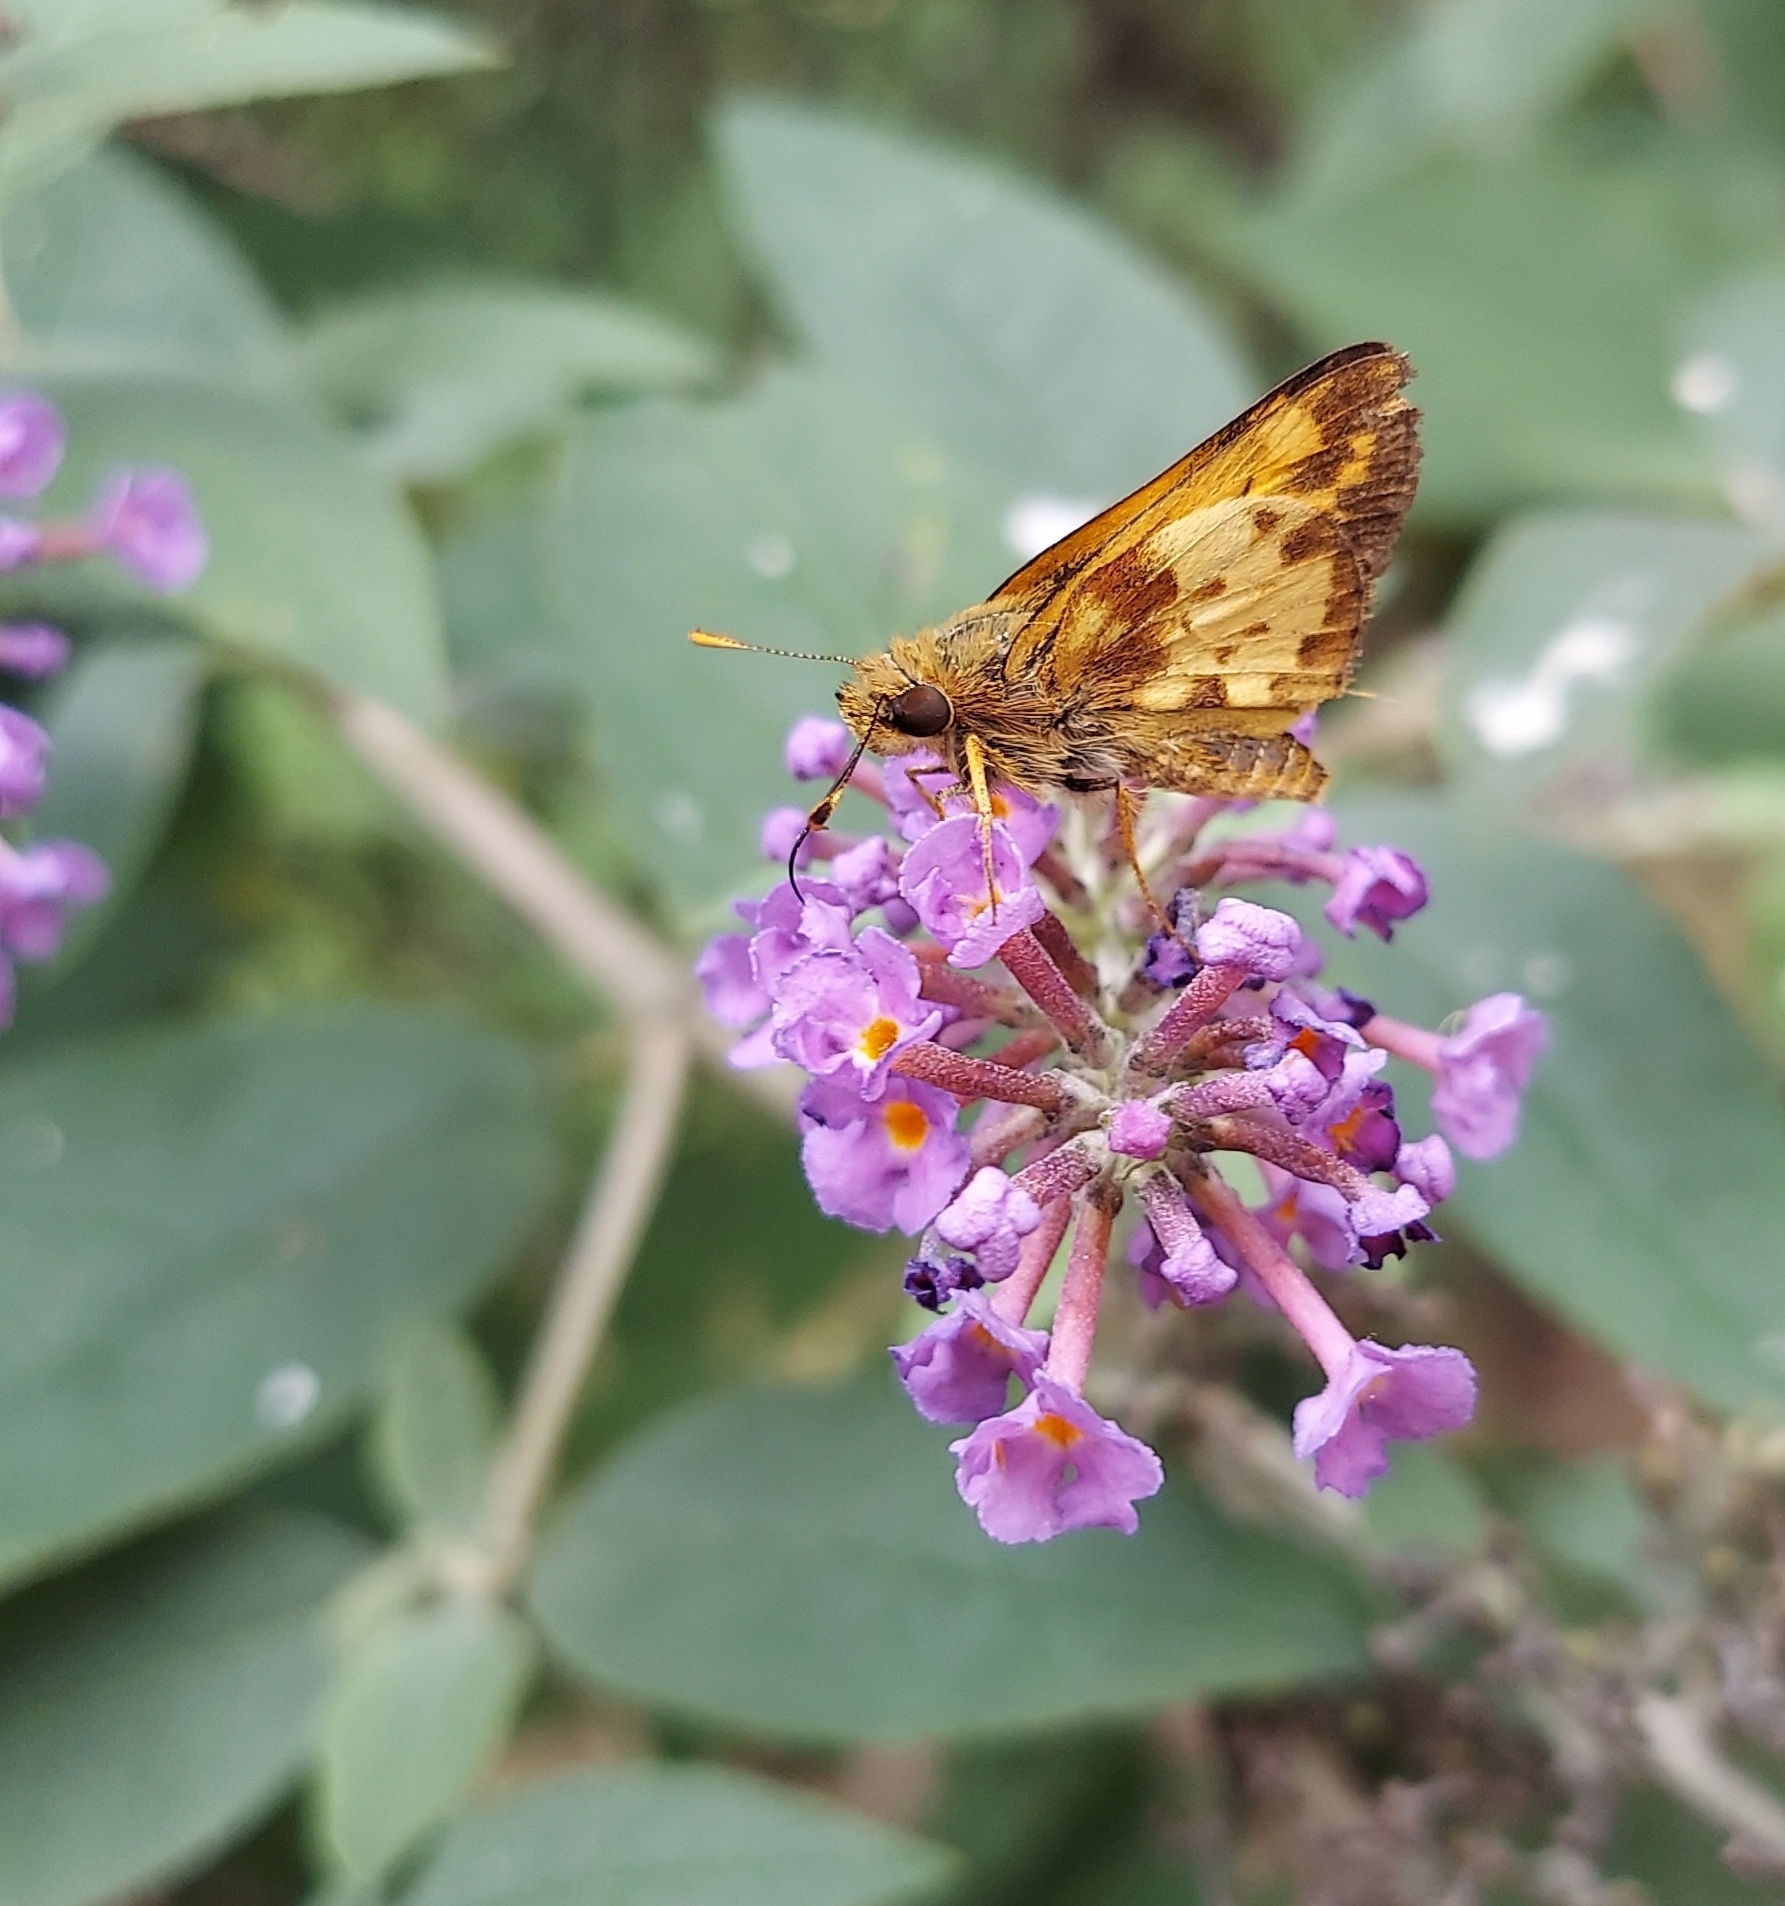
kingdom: Animalia
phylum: Arthropoda
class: Insecta
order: Lepidoptera
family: Hesperiidae
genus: Lon
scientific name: Lon zabulon
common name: Zabulon skipper
